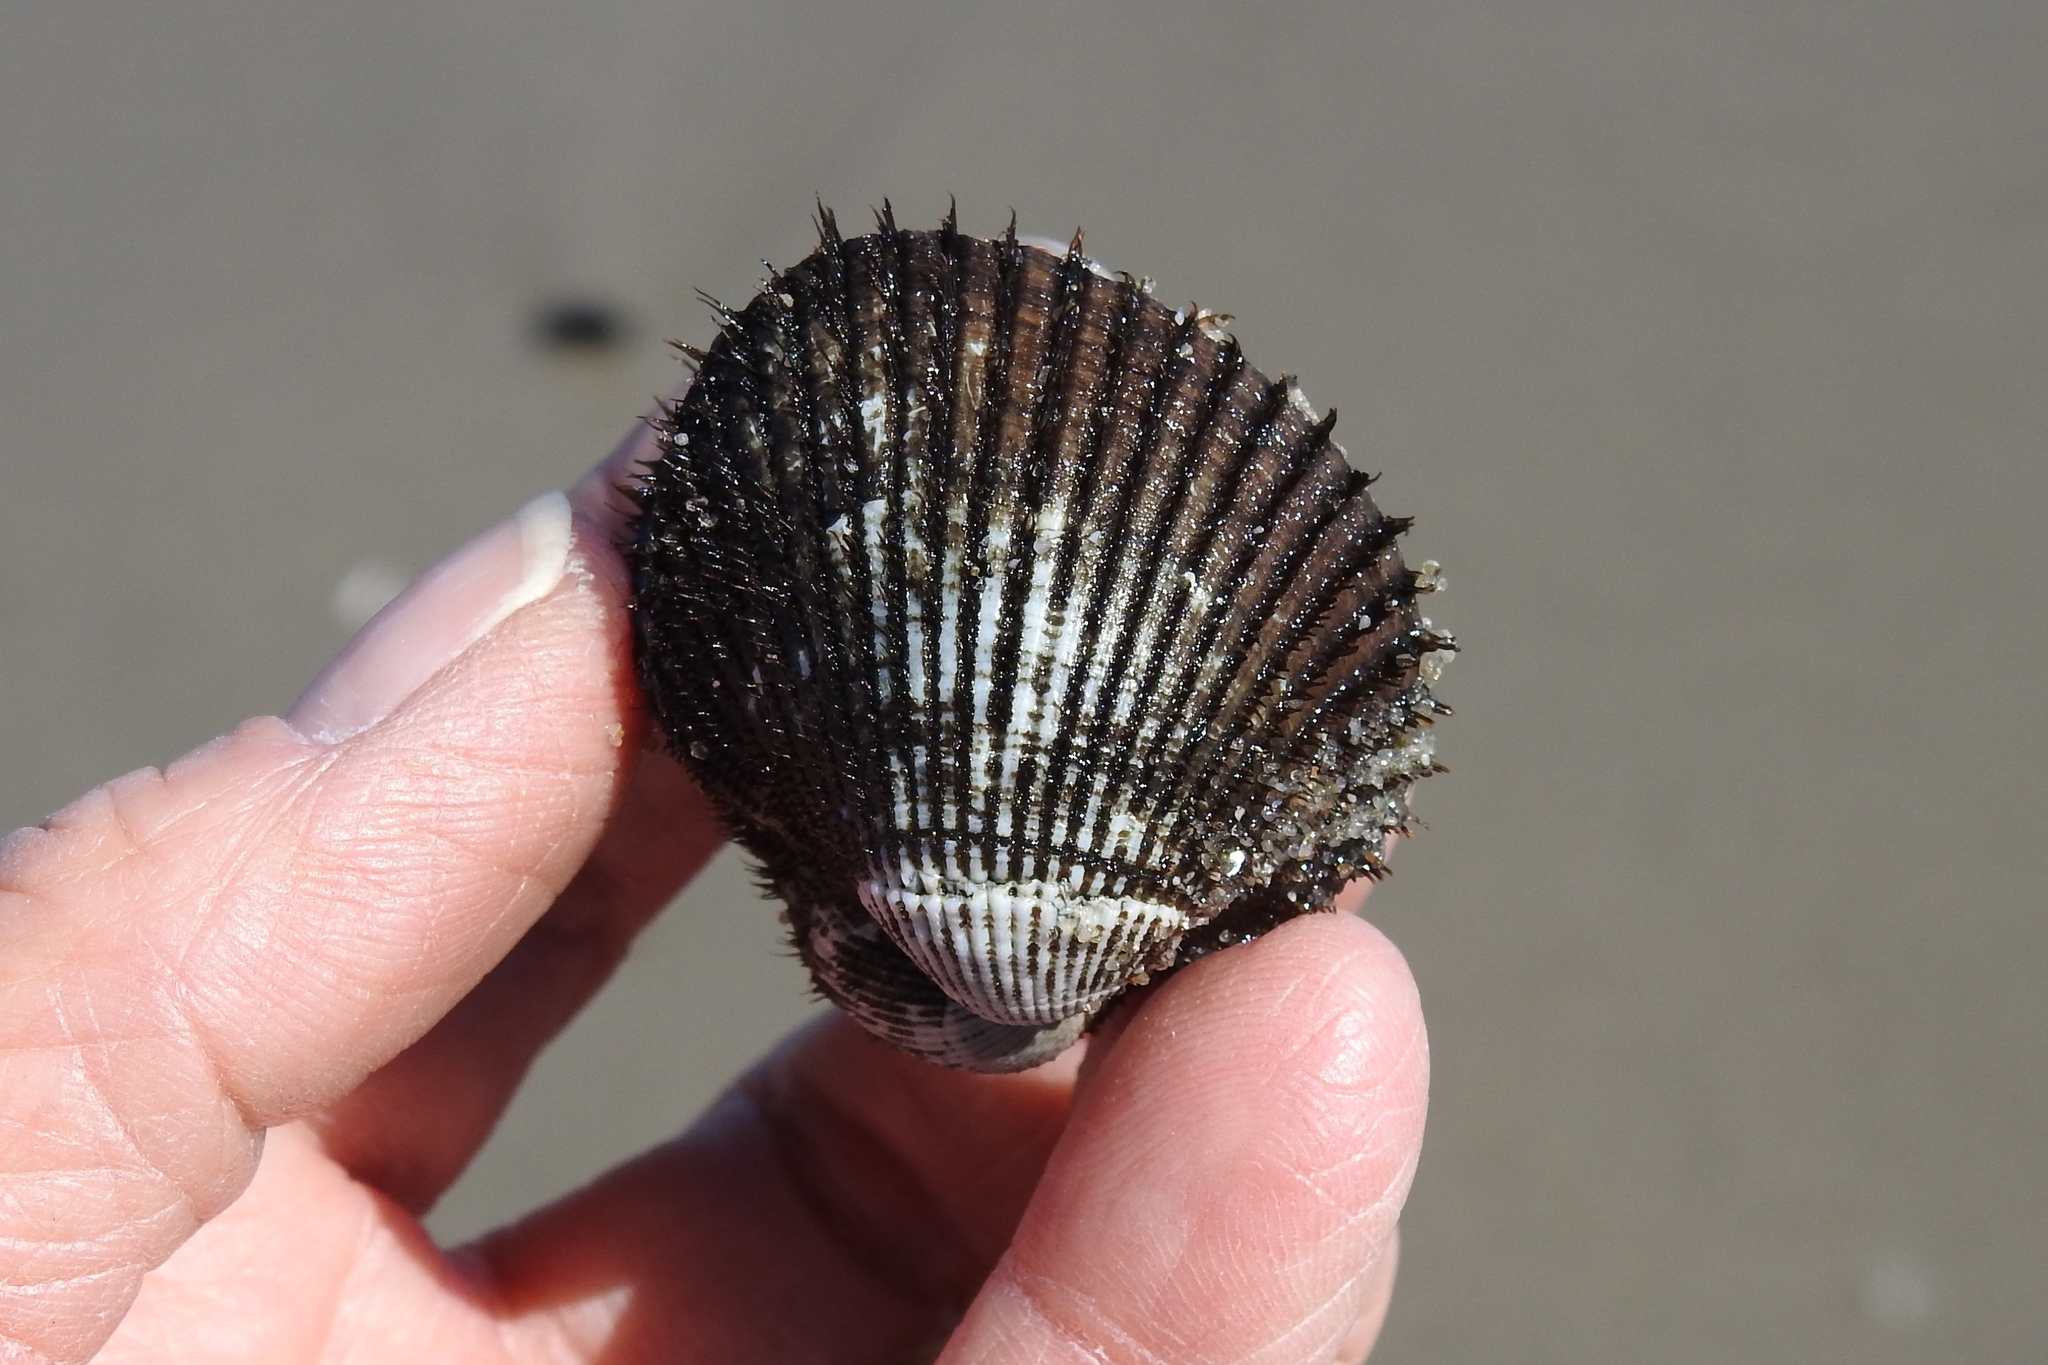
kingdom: Animalia
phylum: Mollusca
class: Bivalvia
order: Arcida
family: Arcidae
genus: Lunarca
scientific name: Lunarca ovalis
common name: Blood ark
